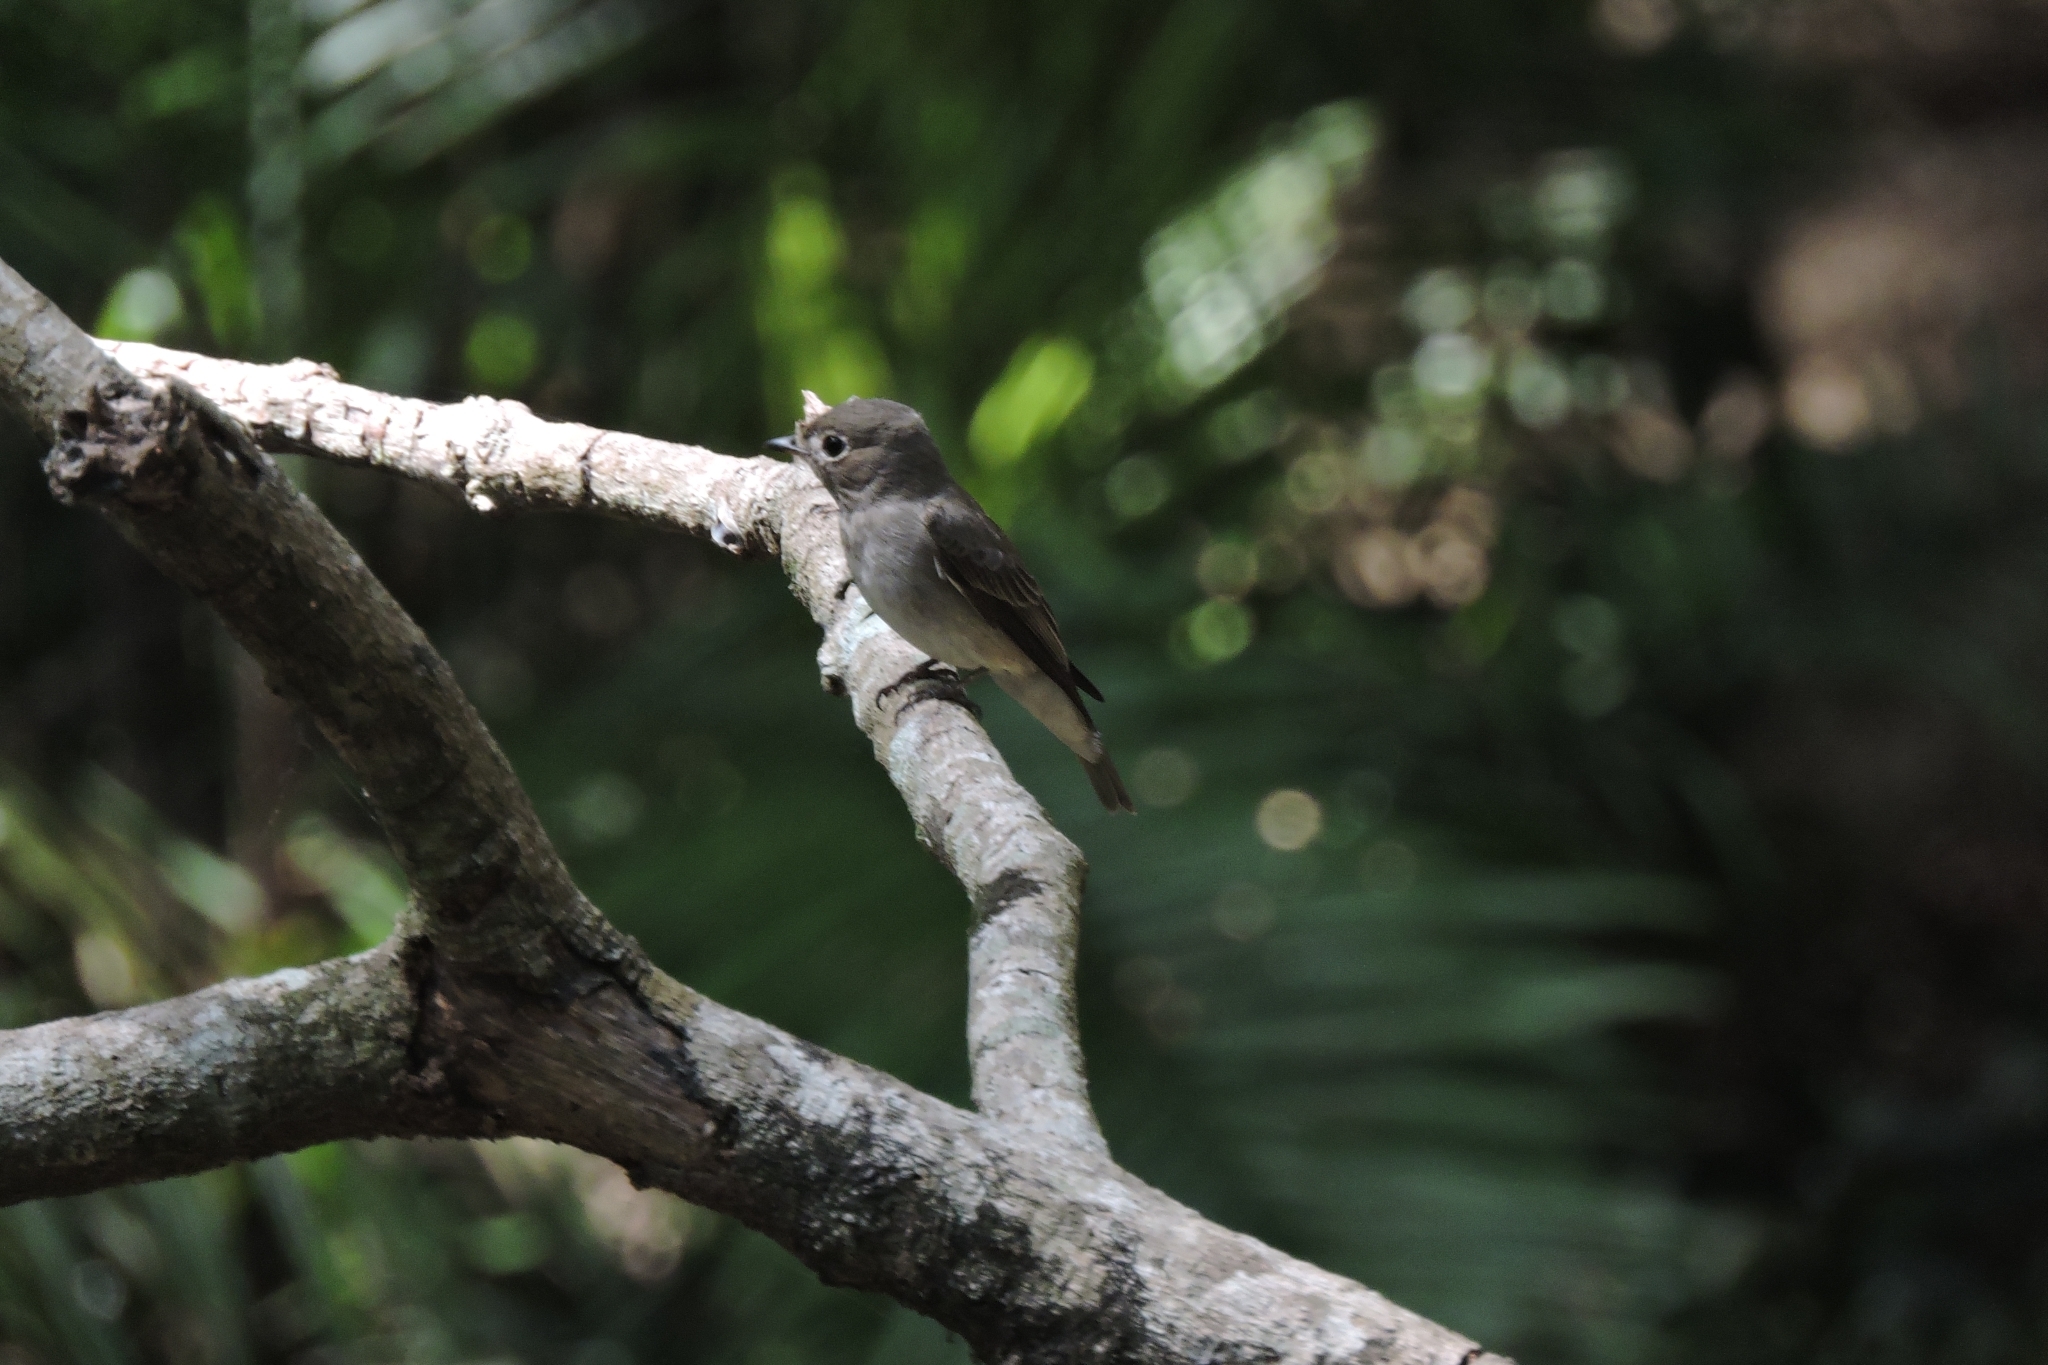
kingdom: Animalia
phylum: Chordata
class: Aves
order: Passeriformes
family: Muscicapidae
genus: Muscicapa
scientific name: Muscicapa latirostris
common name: Asian brown flycatcher
